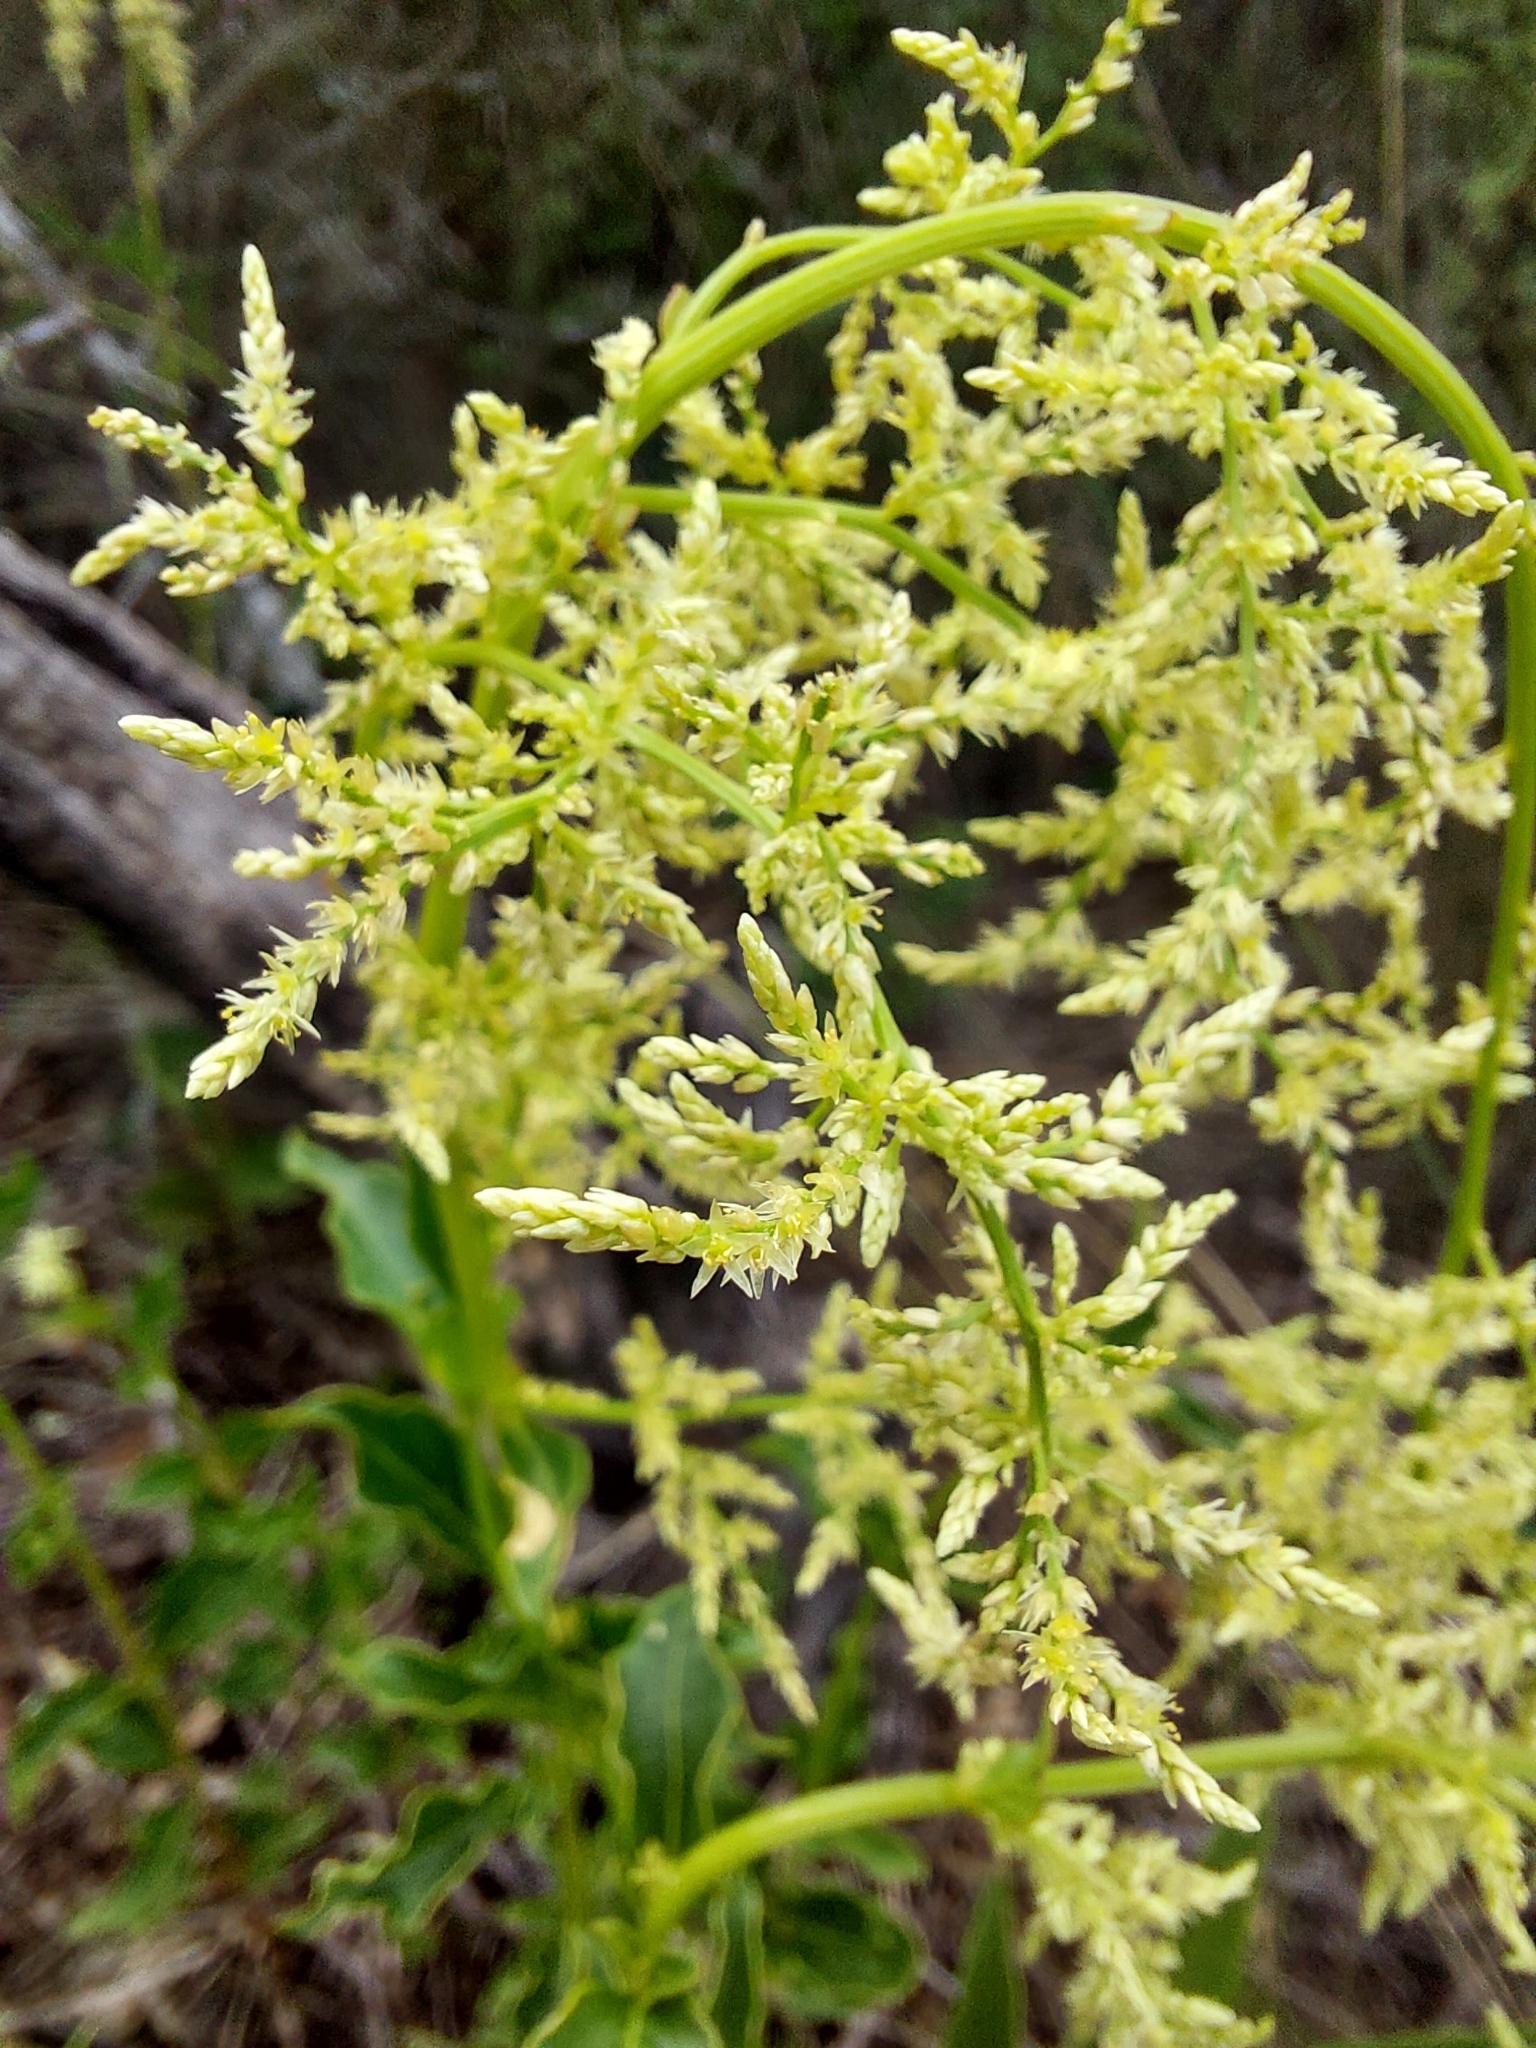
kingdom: Plantae
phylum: Tracheophyta
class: Magnoliopsida
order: Caryophyllales
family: Amaranthaceae
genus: Iresine
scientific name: Iresine diffusa
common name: Juba's-bush
